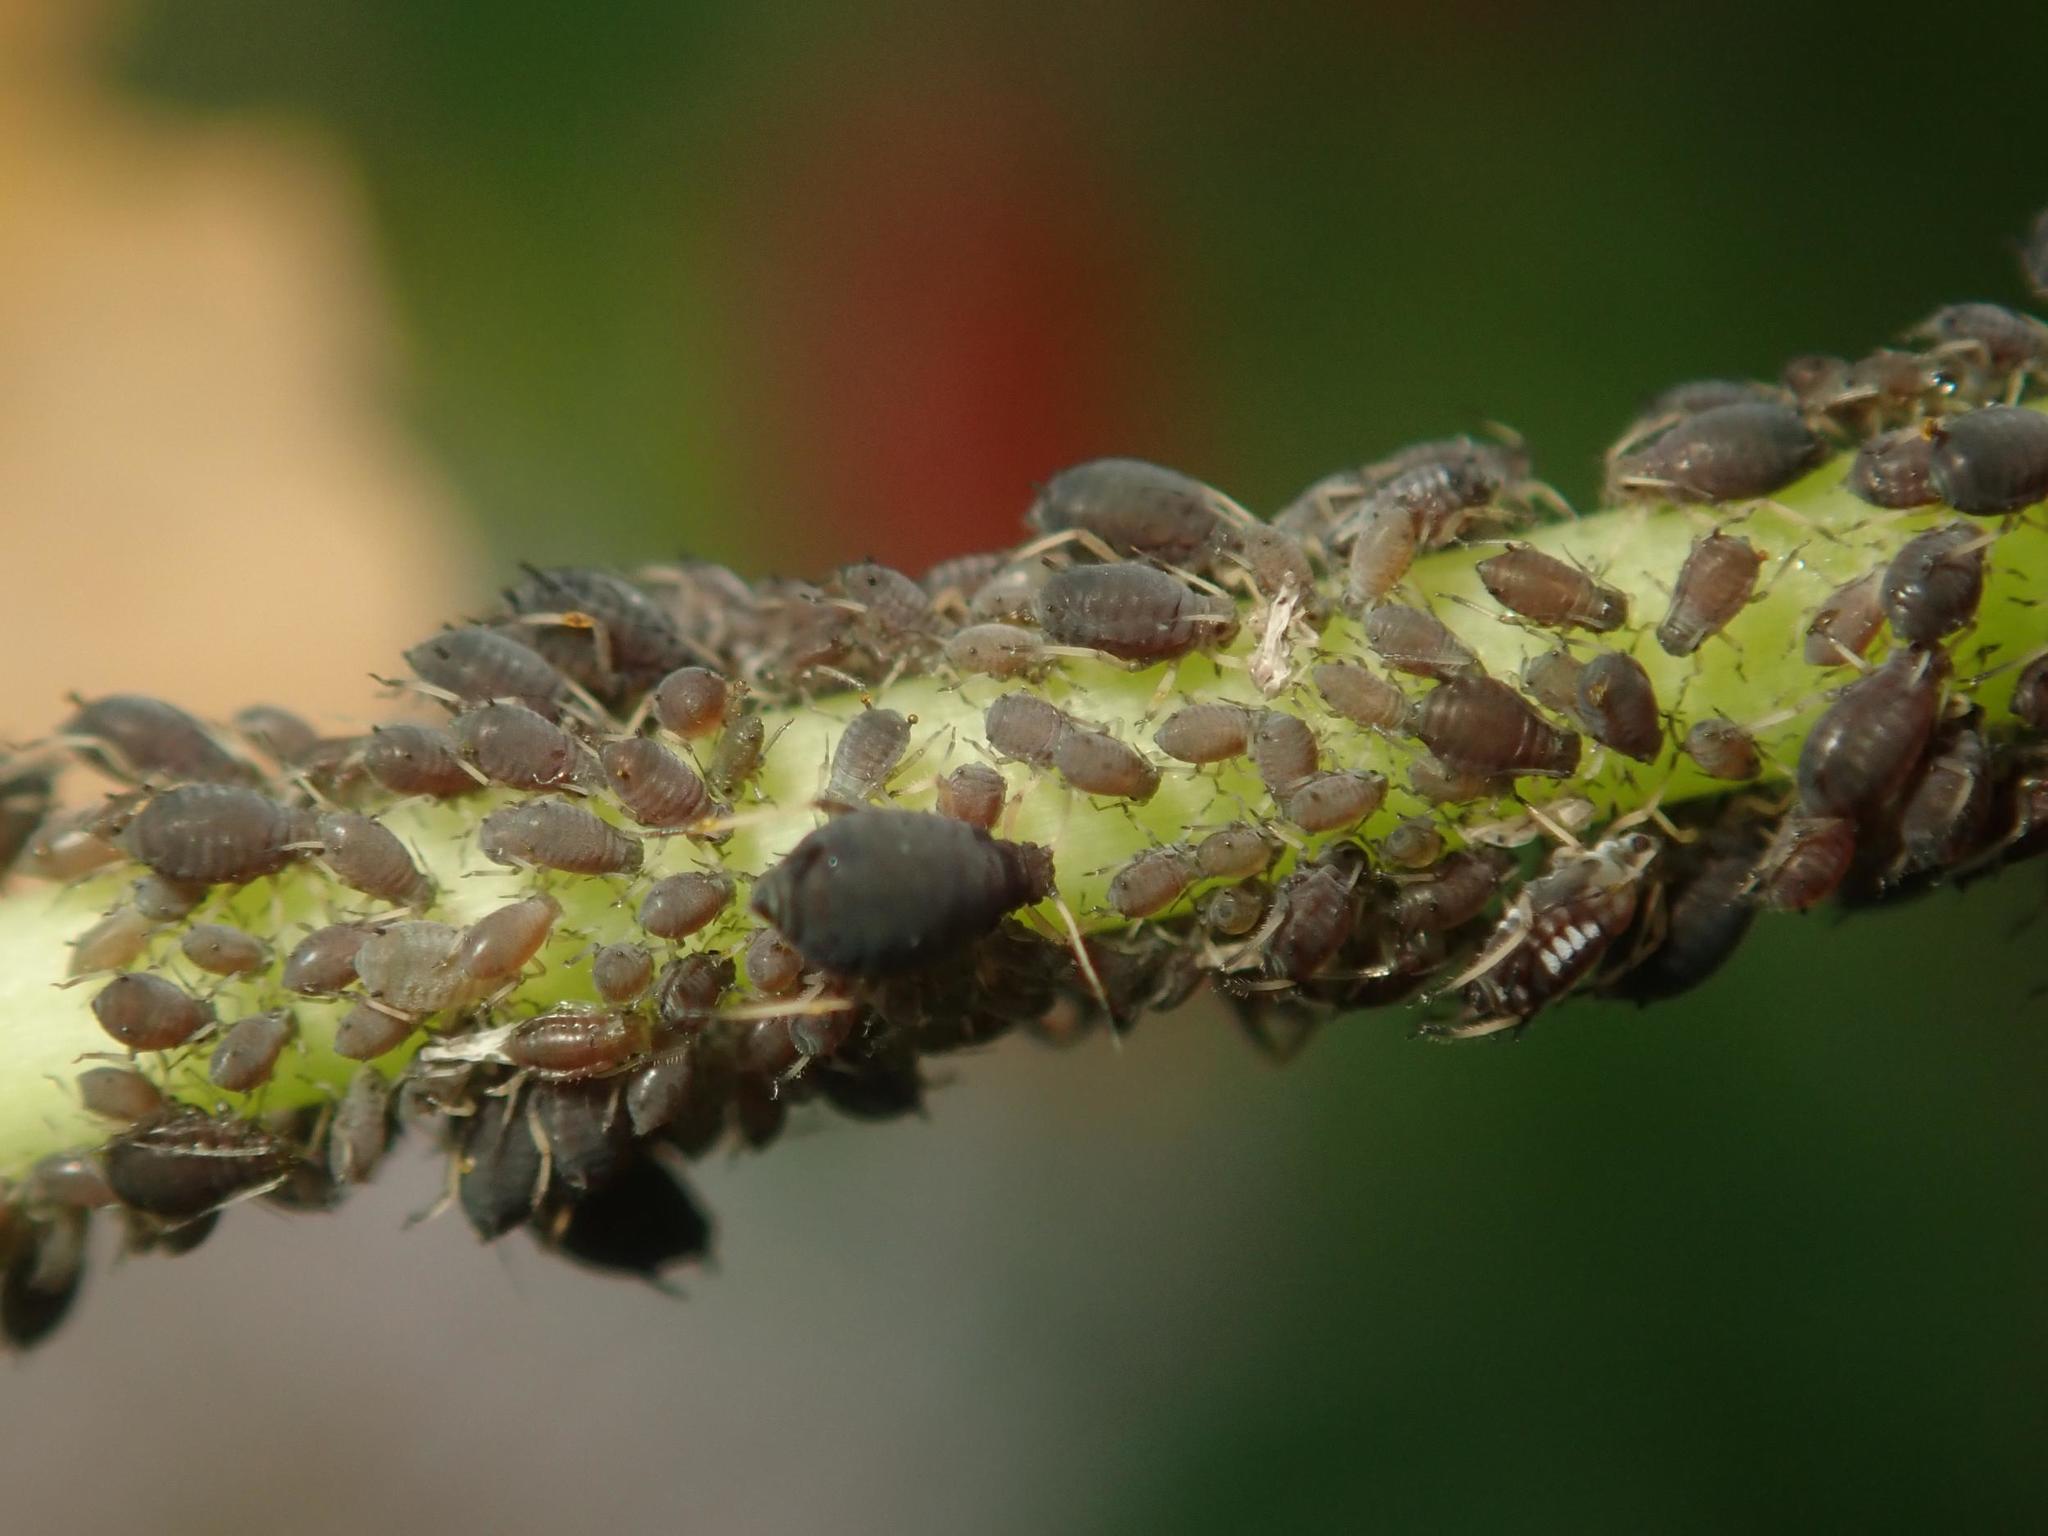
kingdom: Animalia
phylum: Arthropoda
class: Insecta
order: Hemiptera
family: Aphididae
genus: Aphis
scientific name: Aphis fabae
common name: Bean aphid
